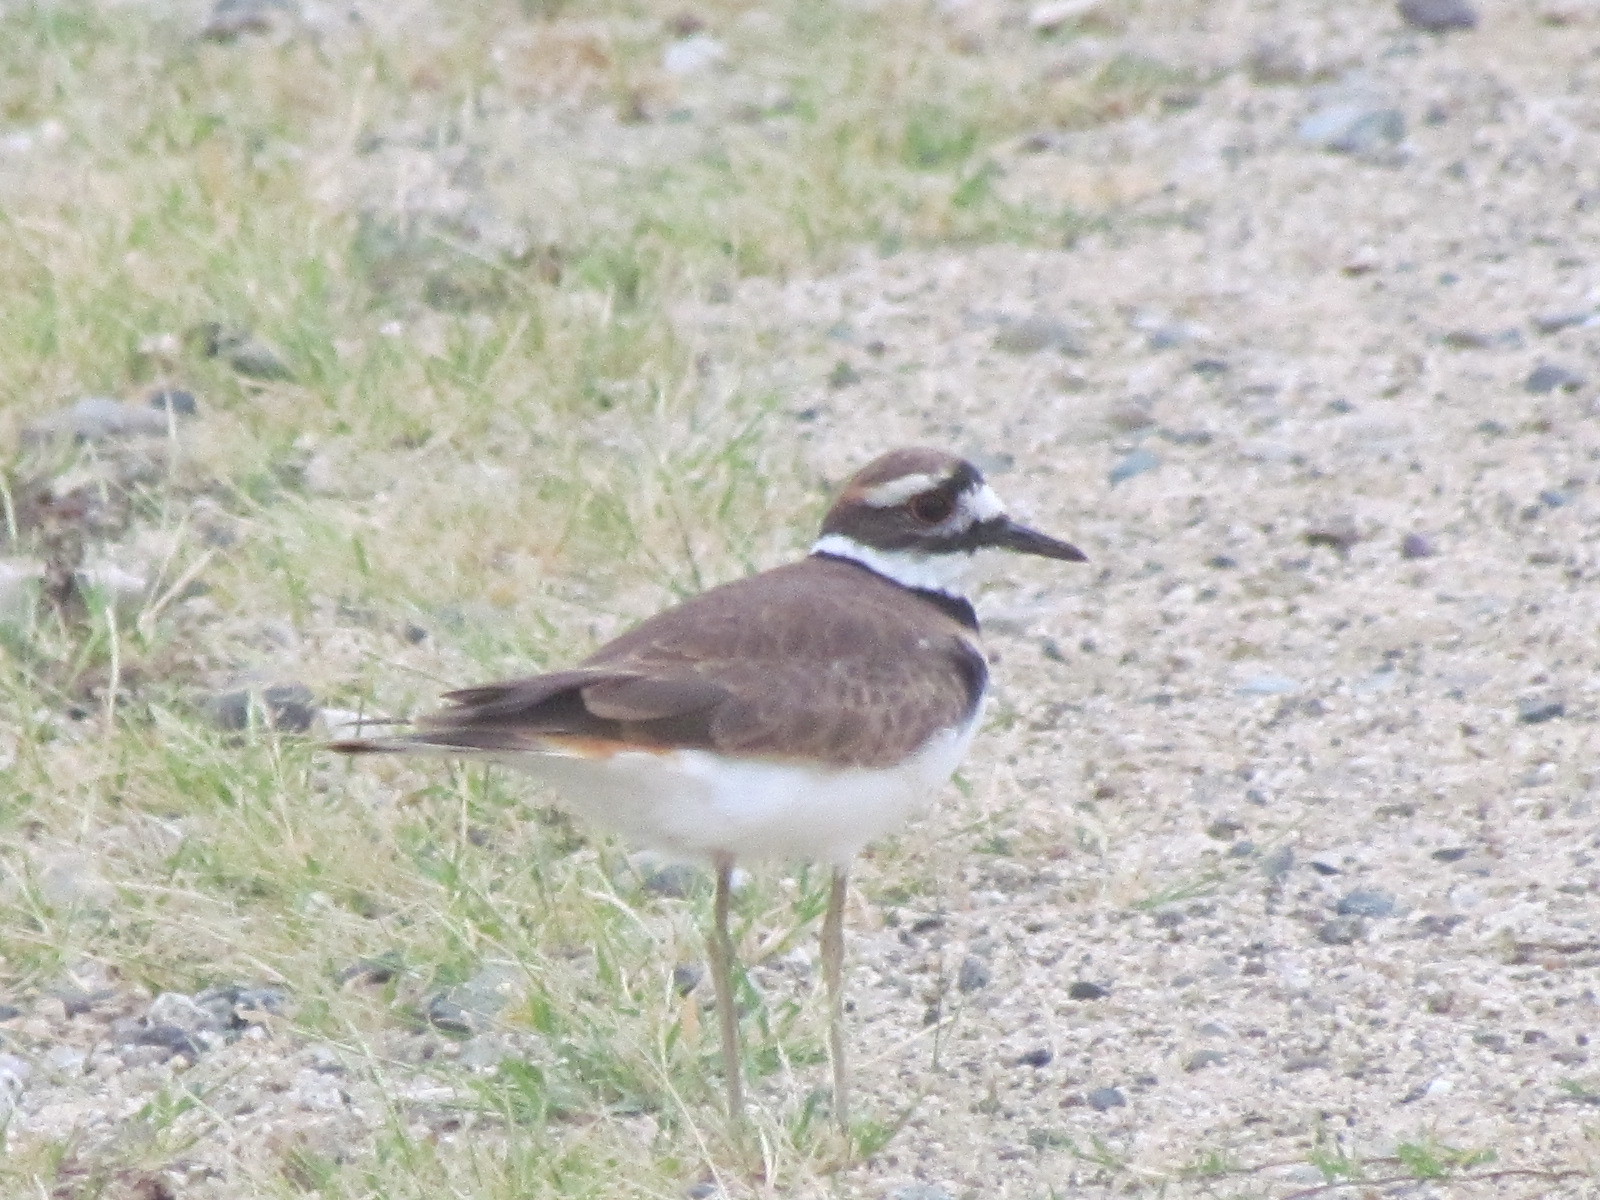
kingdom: Animalia
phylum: Chordata
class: Aves
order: Charadriiformes
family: Charadriidae
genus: Charadrius
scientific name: Charadrius vociferus
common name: Killdeer
